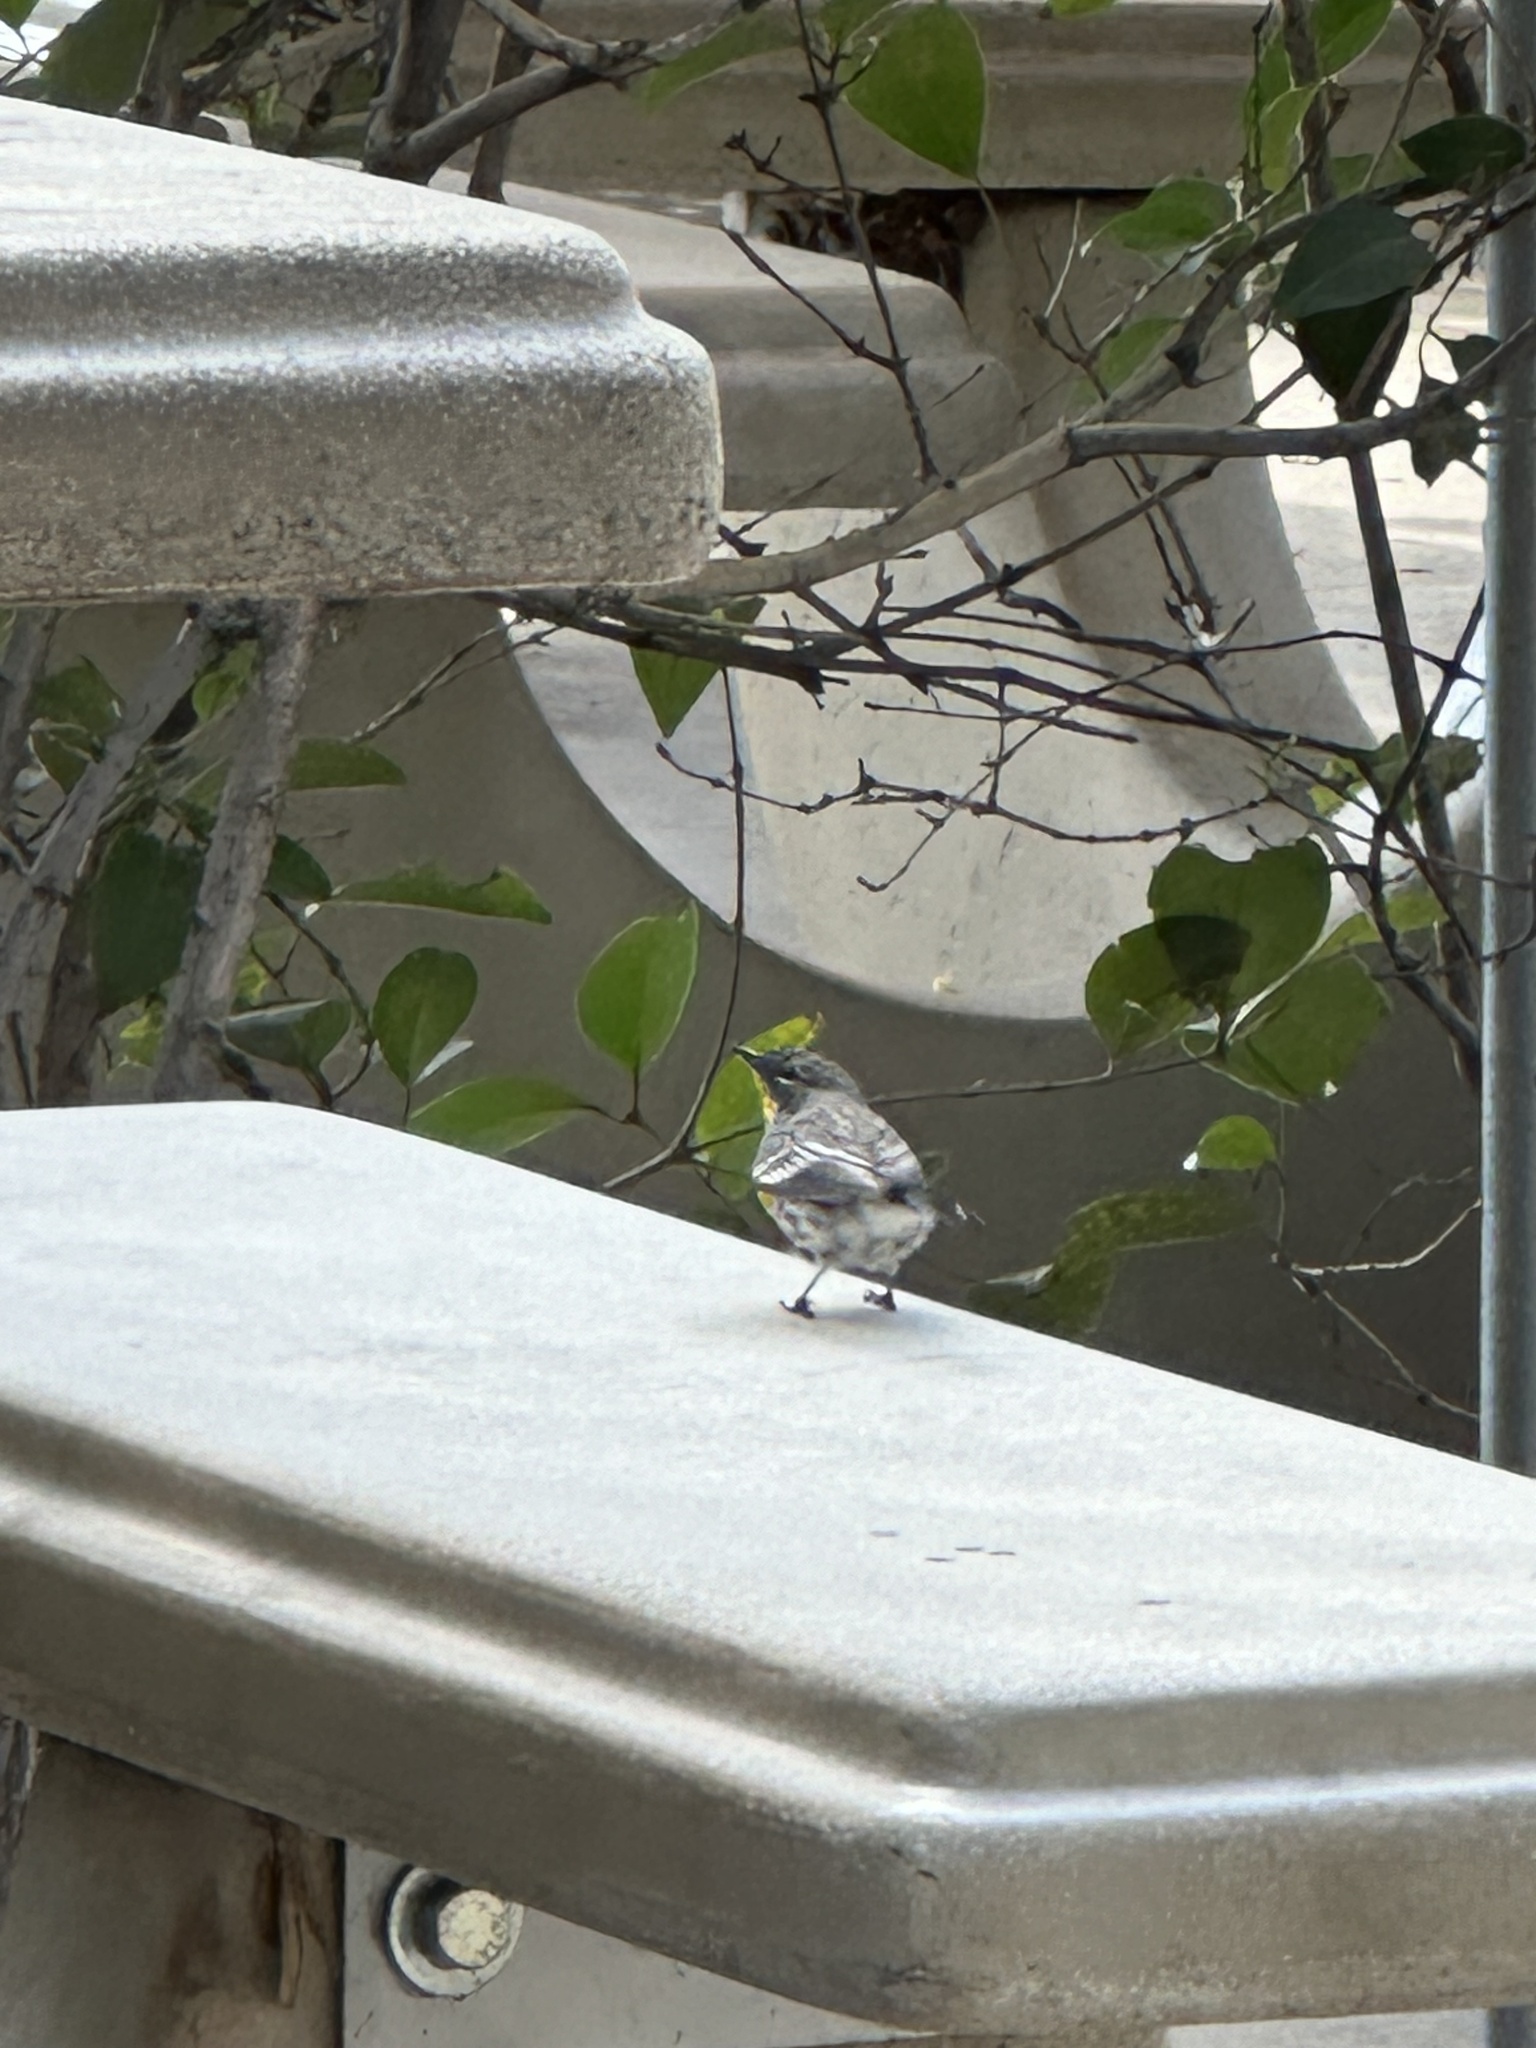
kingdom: Animalia
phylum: Chordata
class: Aves
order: Passeriformes
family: Parulidae
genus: Setophaga
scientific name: Setophaga coronata
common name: Myrtle warbler
